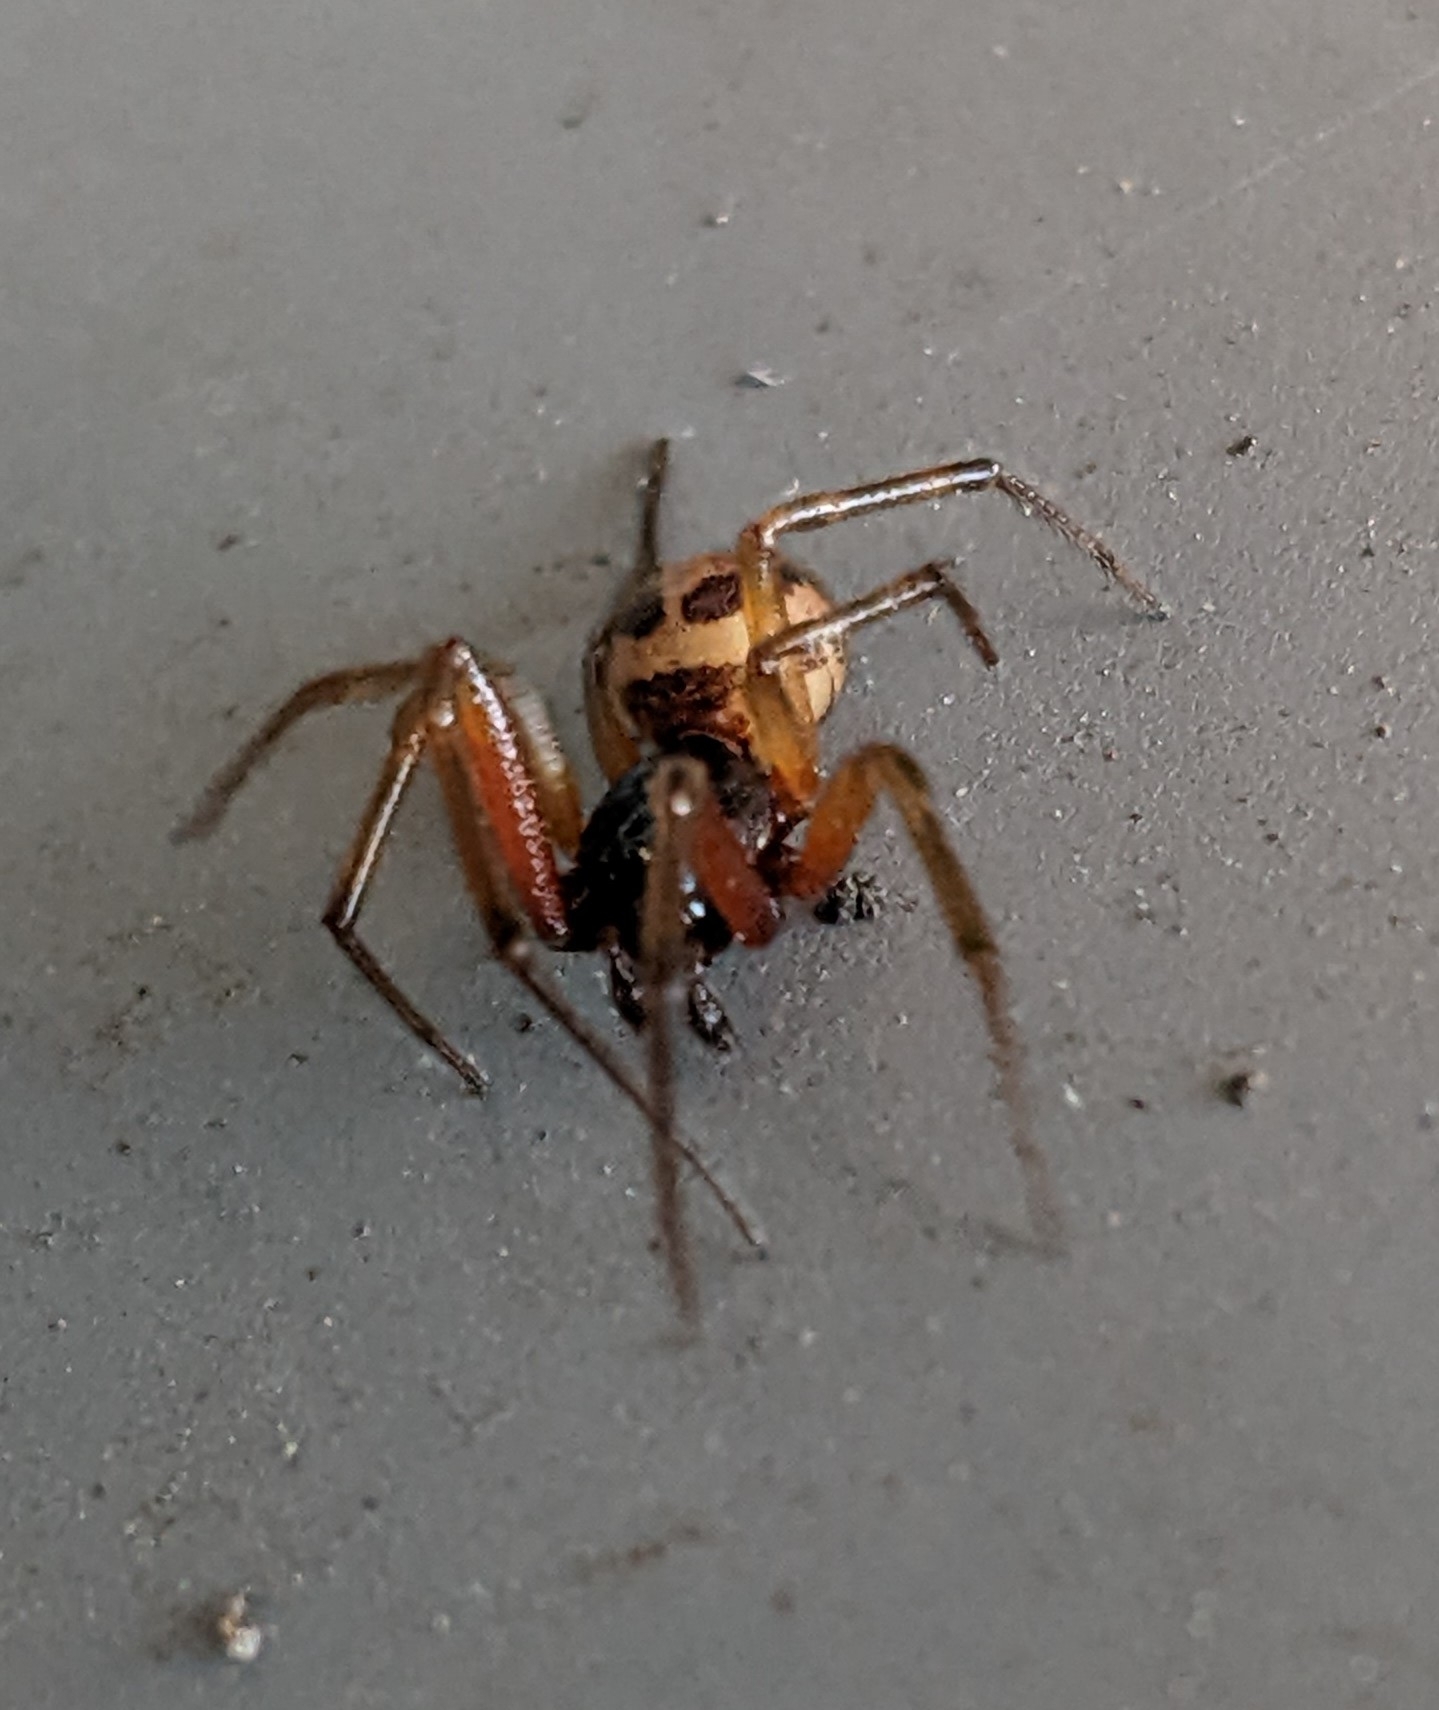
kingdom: Animalia
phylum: Arthropoda
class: Arachnida
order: Araneae
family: Theridiidae
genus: Steatoda
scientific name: Steatoda nobilis
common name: Cobweb weaver
